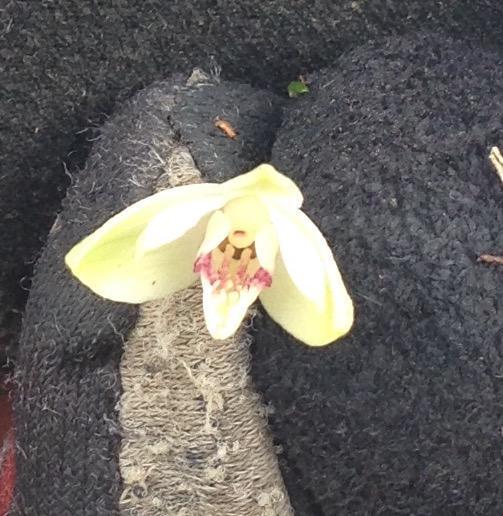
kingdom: Plantae
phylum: Tracheophyta
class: Liliopsida
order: Asparagales
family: Orchidaceae
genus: Eulophia
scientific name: Eulophia aculeata
